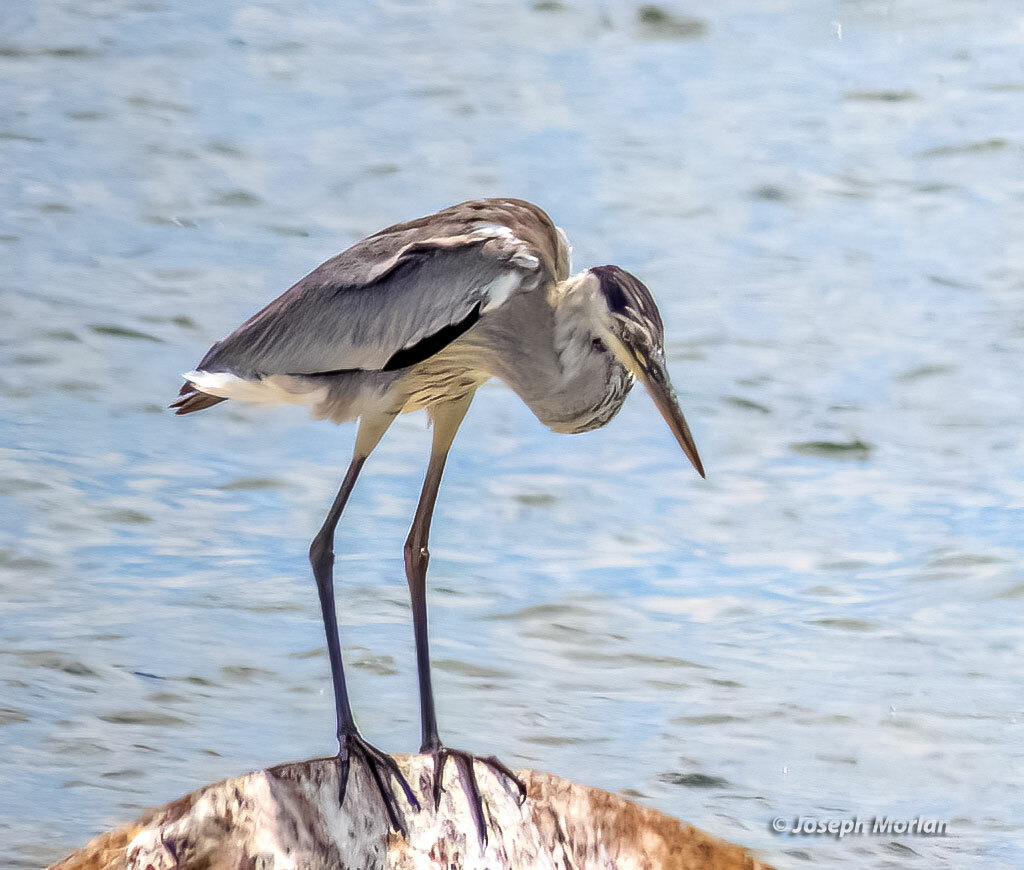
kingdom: Animalia
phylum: Chordata
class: Aves
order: Pelecaniformes
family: Ardeidae
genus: Ardea
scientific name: Ardea cocoi
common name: Cocoi heron
